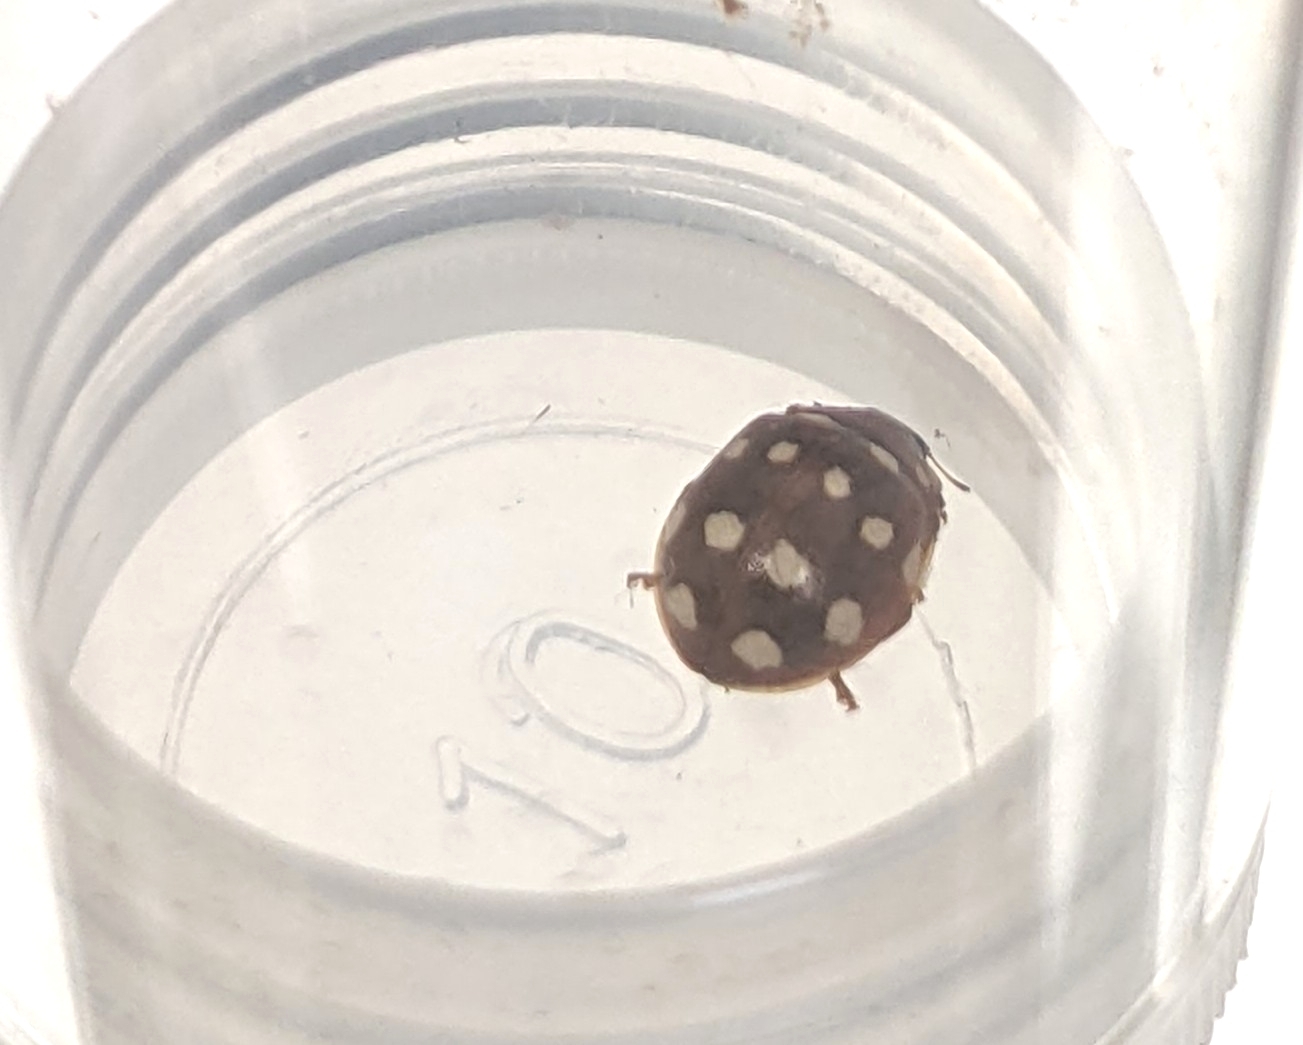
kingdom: Animalia
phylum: Arthropoda
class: Insecta
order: Coleoptera
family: Coccinellidae
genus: Calvia
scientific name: Calvia quatuordecimguttata
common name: Cream-spot ladybird
